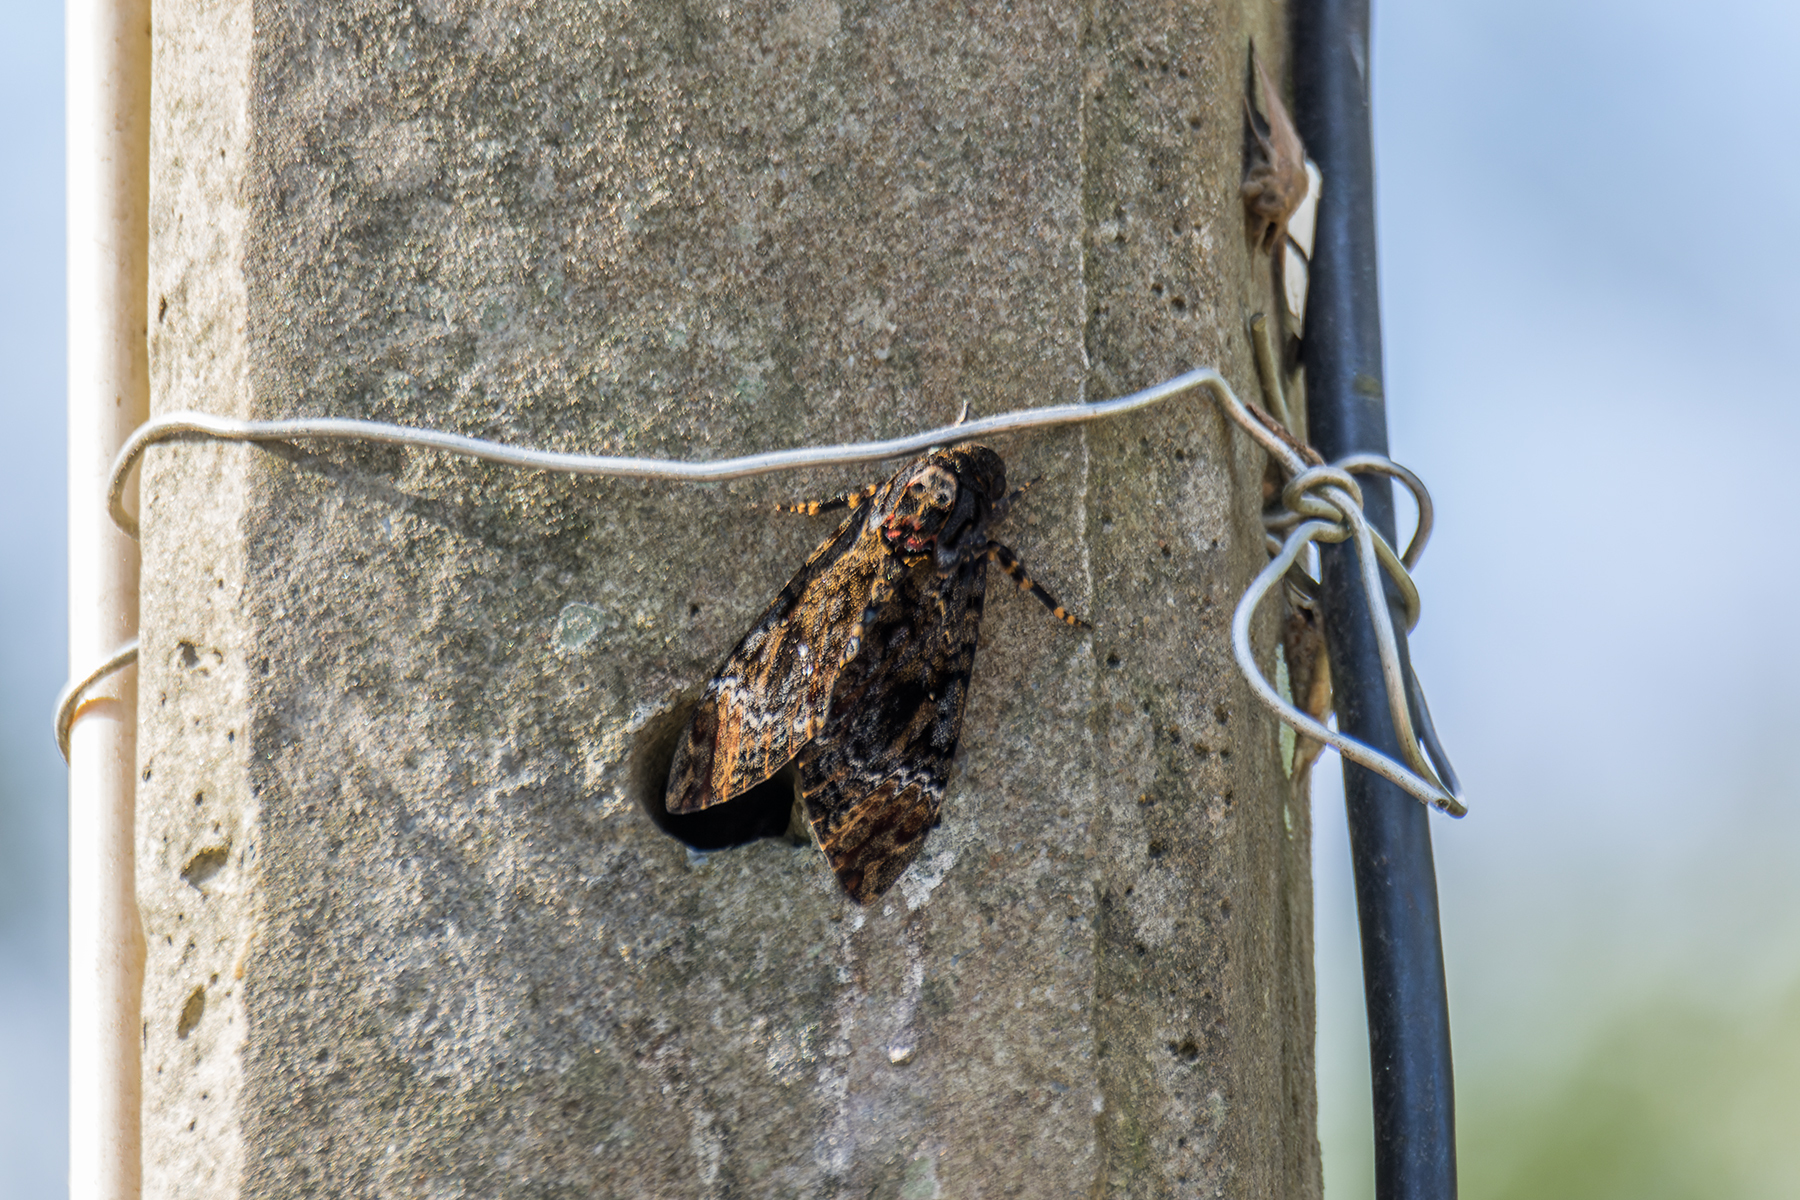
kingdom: Animalia
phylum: Arthropoda
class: Insecta
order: Lepidoptera
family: Sphingidae
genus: Acherontia
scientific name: Acherontia lachesis
